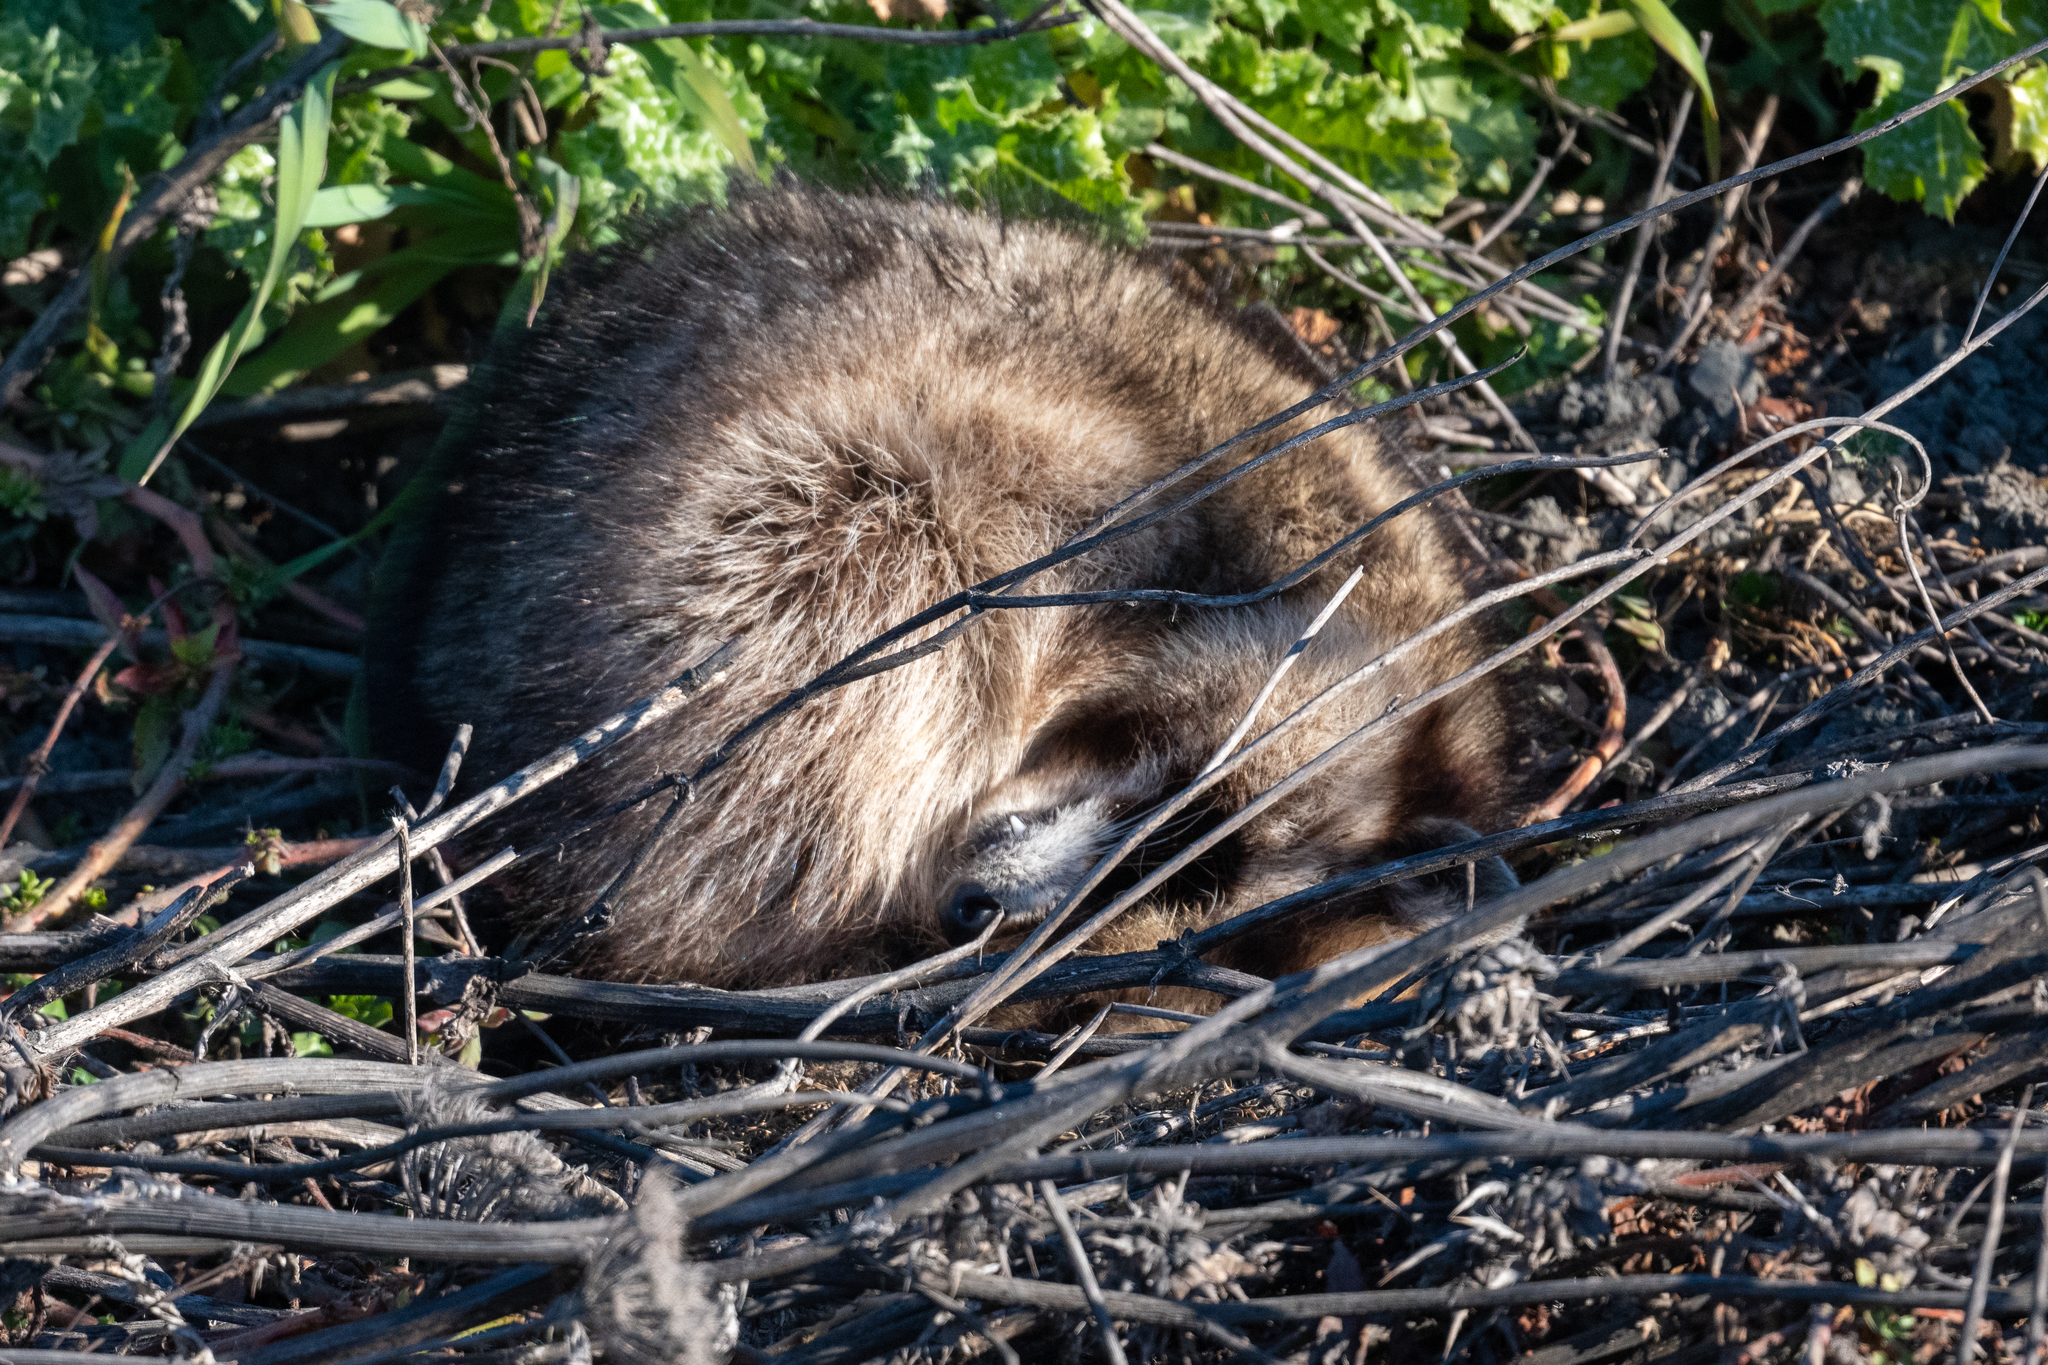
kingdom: Animalia
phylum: Chordata
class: Mammalia
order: Carnivora
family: Procyonidae
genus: Procyon
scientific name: Procyon lotor
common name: Raccoon
